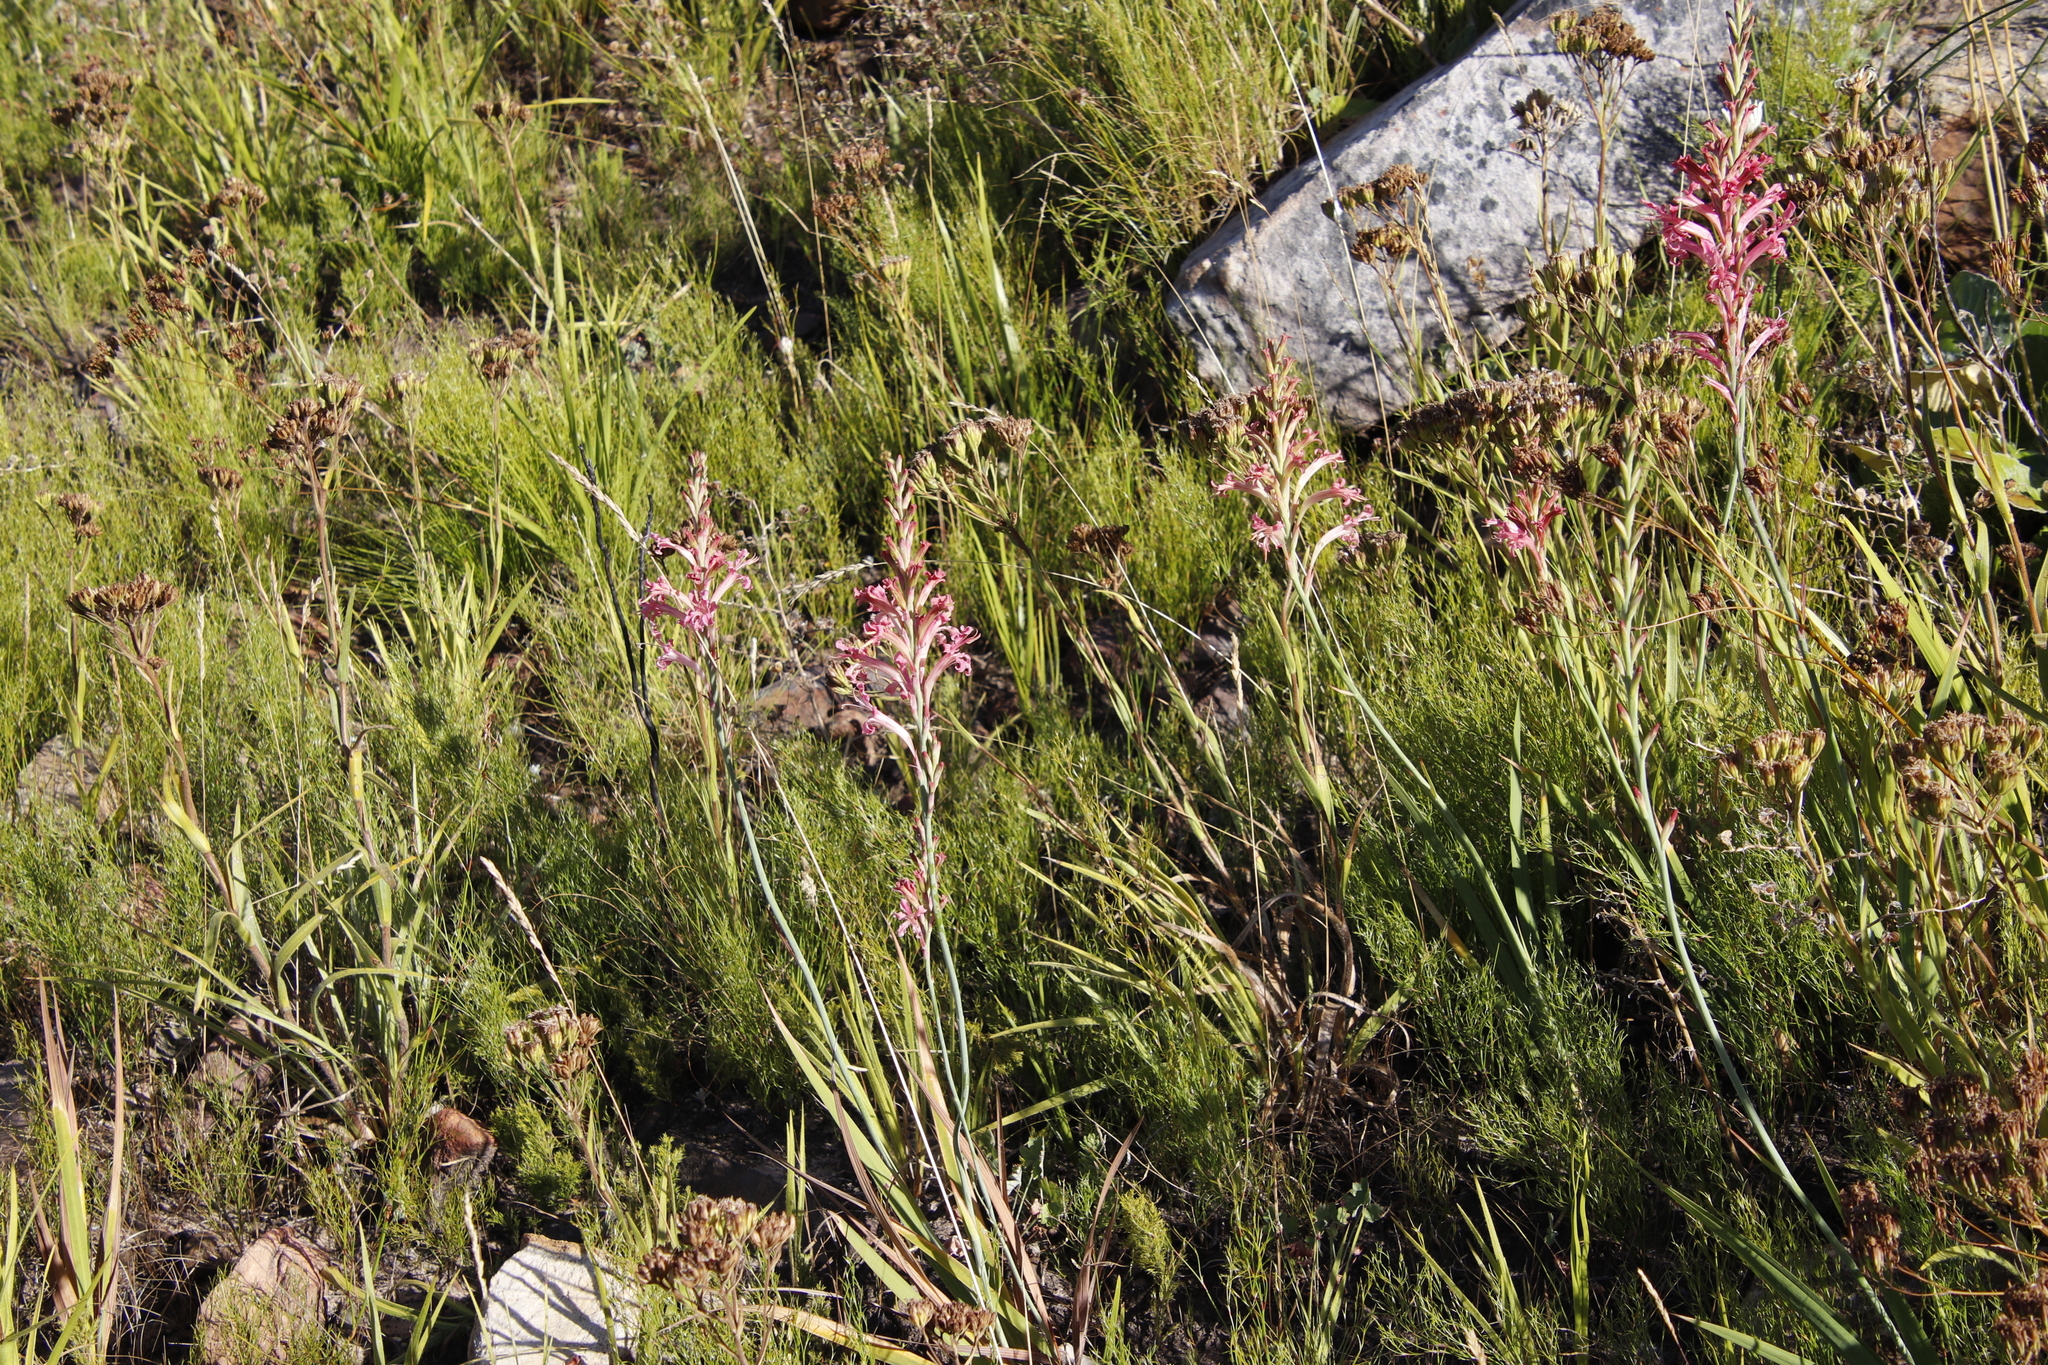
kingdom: Plantae
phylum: Tracheophyta
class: Liliopsida
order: Asparagales
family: Iridaceae
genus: Tritoniopsis
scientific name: Tritoniopsis antholyza
